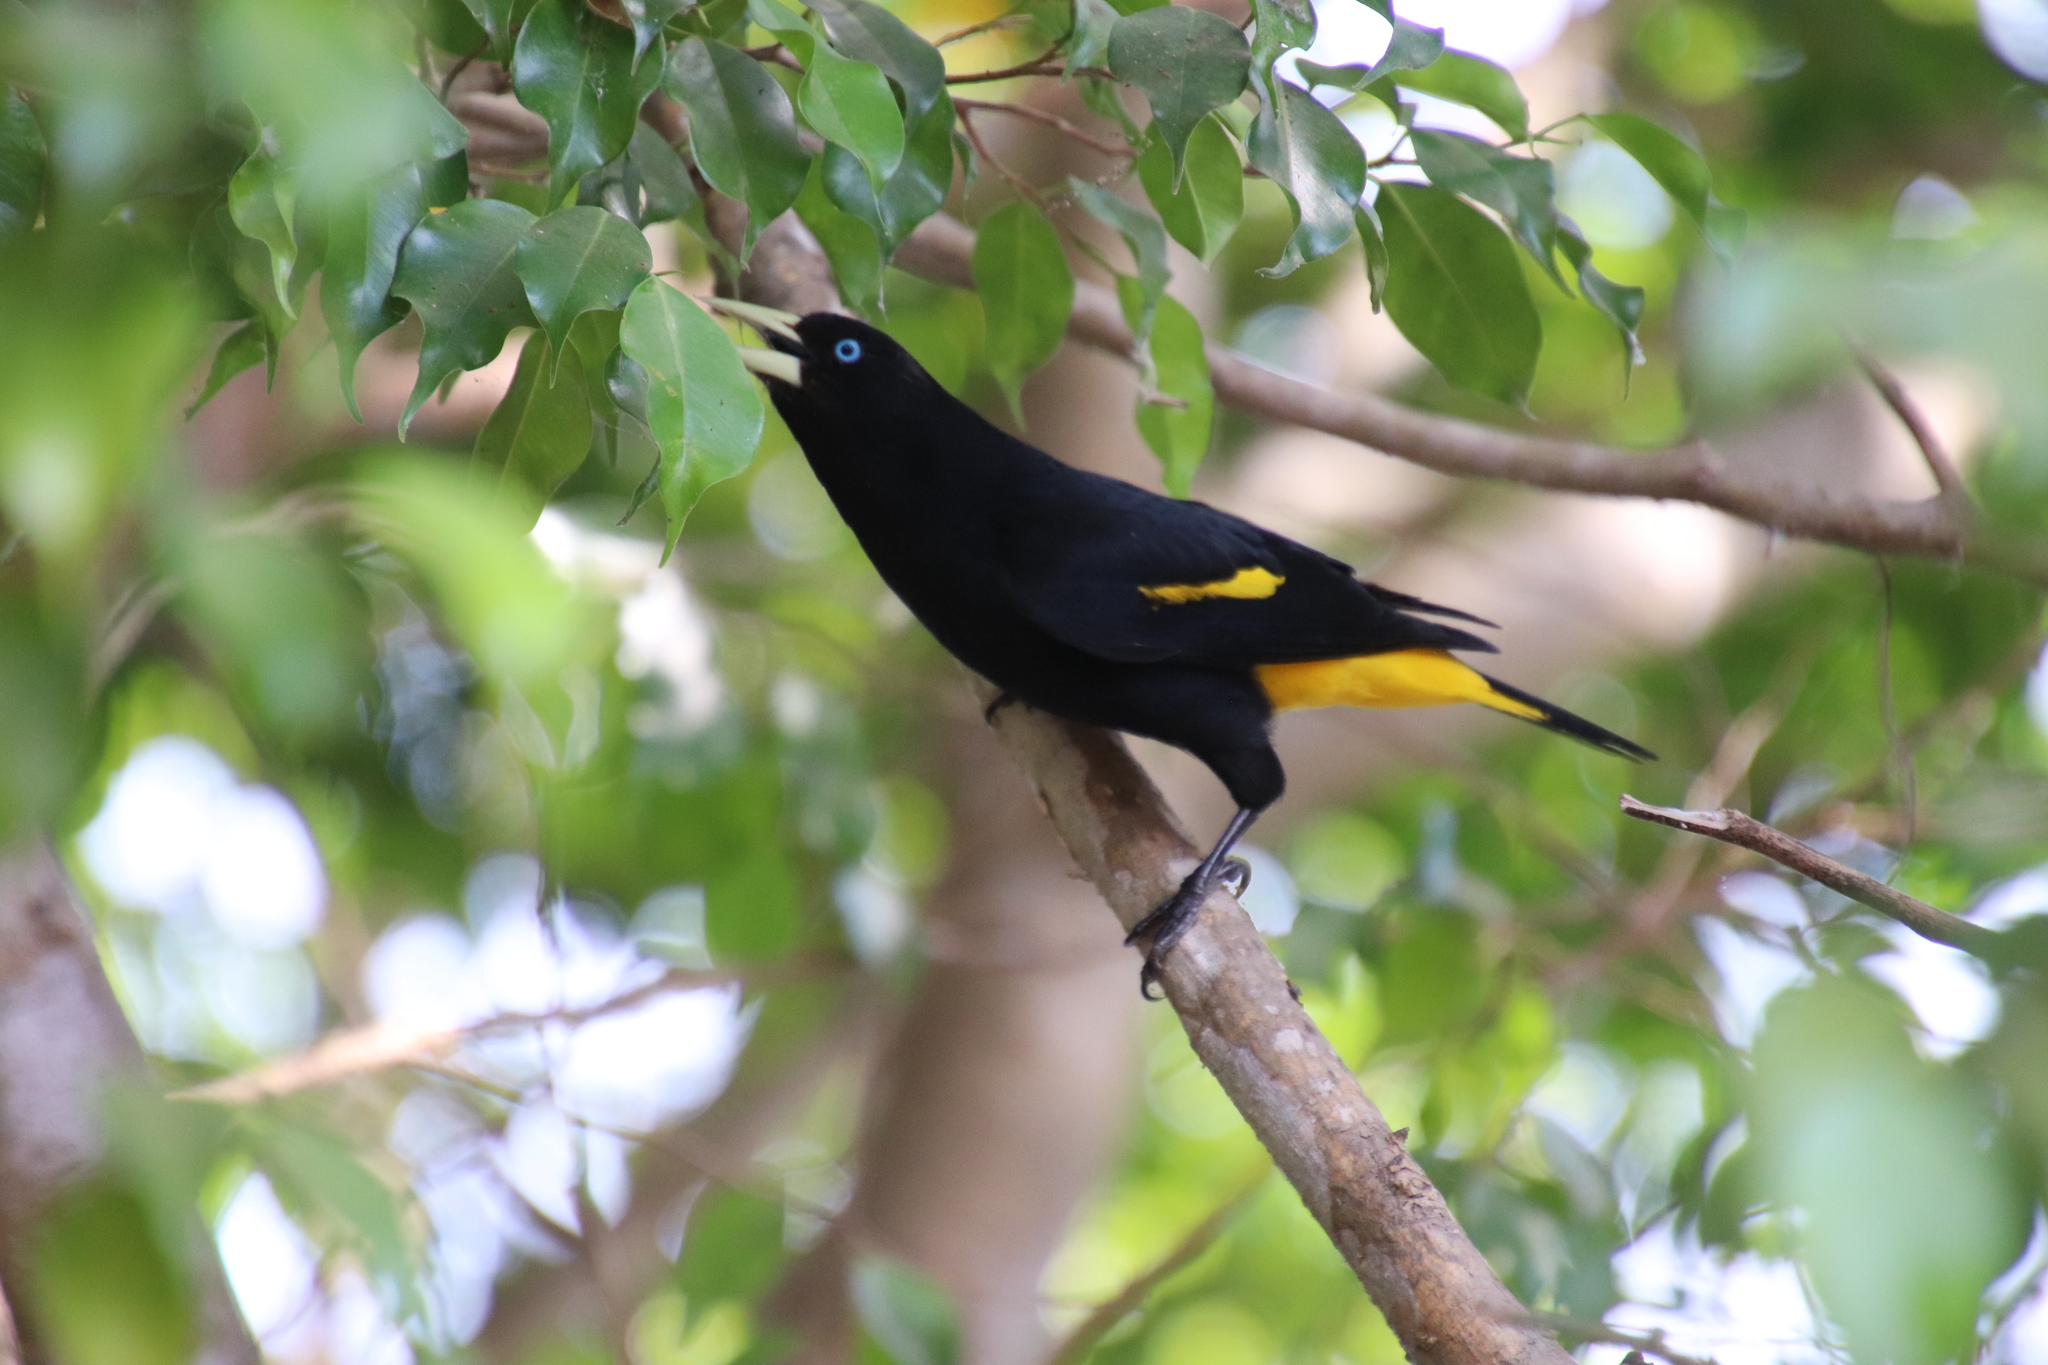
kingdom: Animalia
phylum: Chordata
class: Aves
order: Passeriformes
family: Icteridae
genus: Cacicus
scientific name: Cacicus cela
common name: Yellow-rumped cacique
